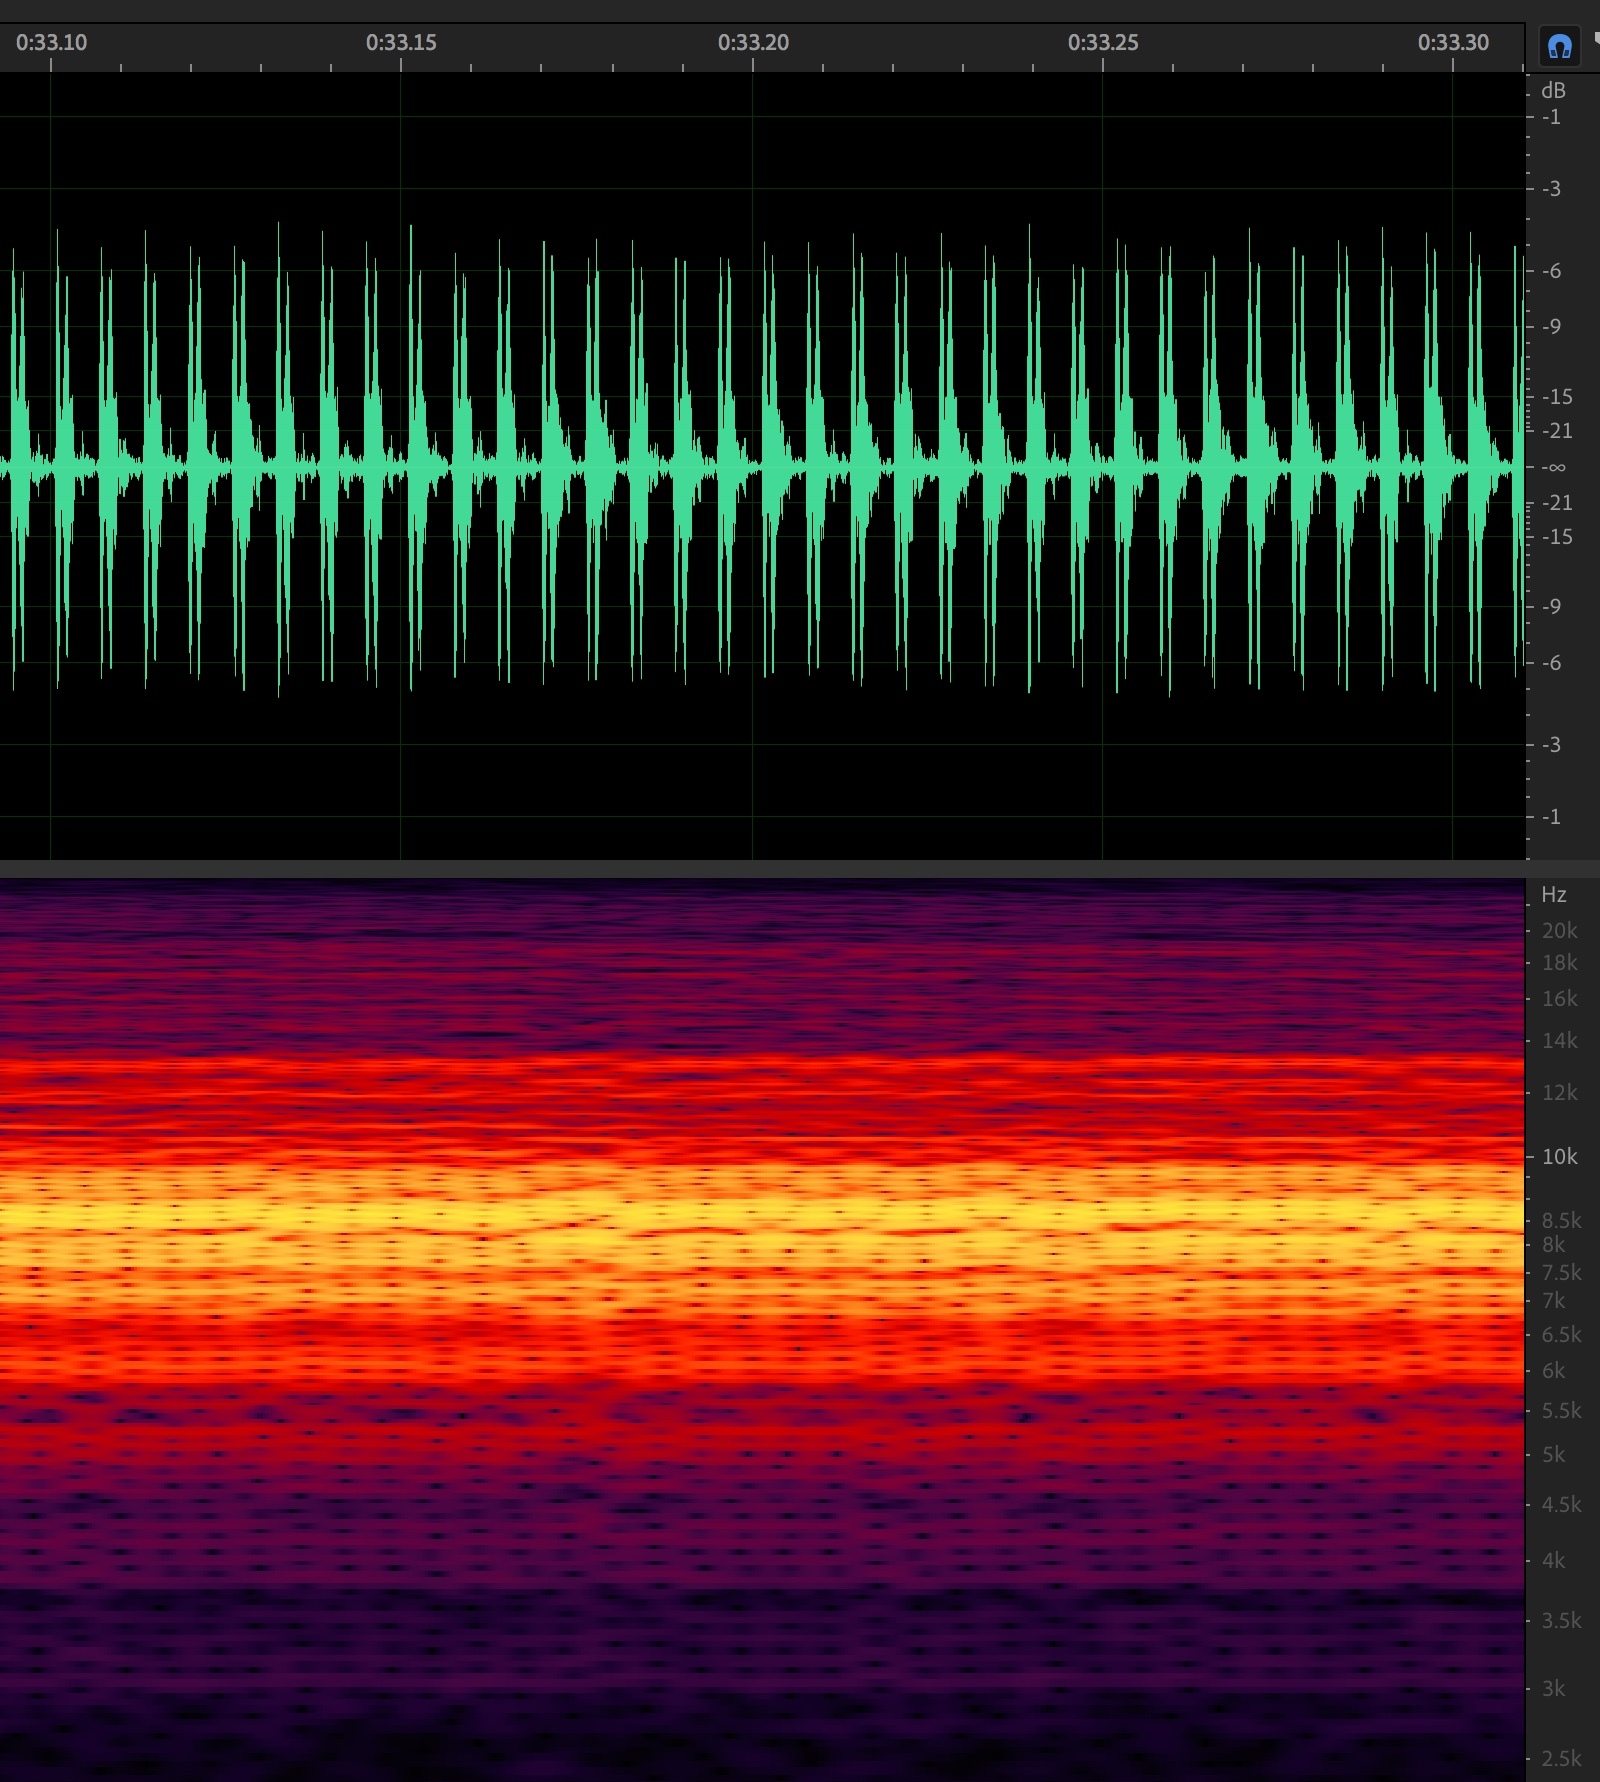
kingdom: Animalia
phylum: Arthropoda
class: Insecta
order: Hemiptera
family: Cicadidae
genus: Diceroprocta
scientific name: Diceroprocta aurantiaca
